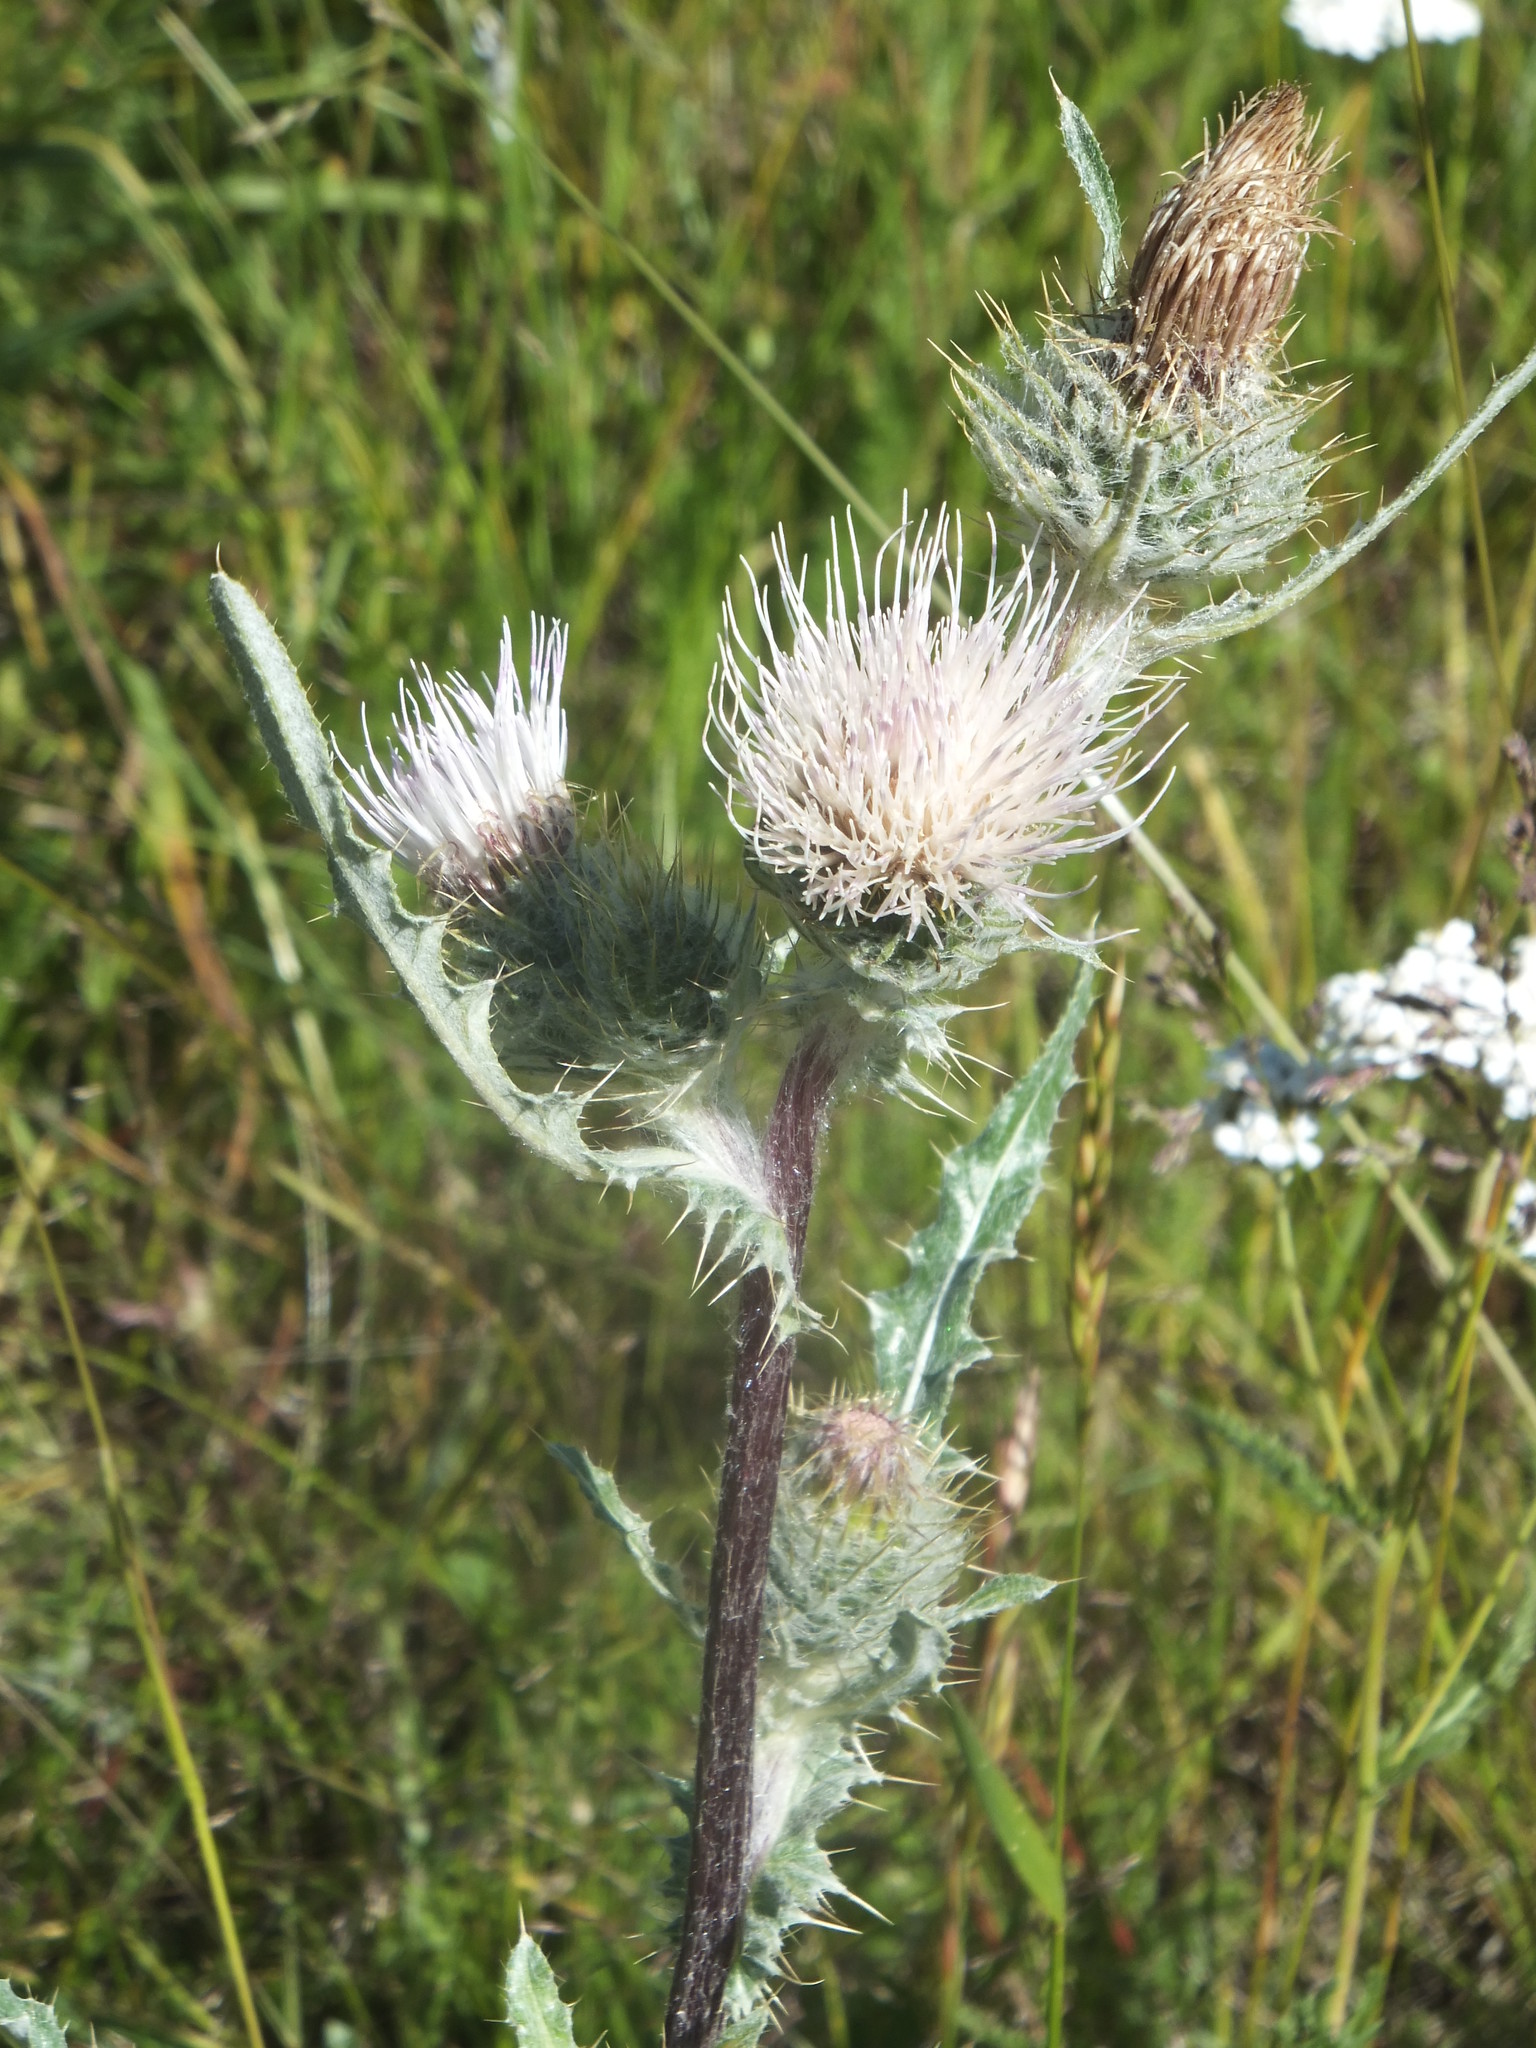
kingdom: Plantae
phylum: Tracheophyta
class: Magnoliopsida
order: Asterales
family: Asteraceae
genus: Cirsium
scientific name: Cirsium hookerianum
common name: Hooker's thistle
